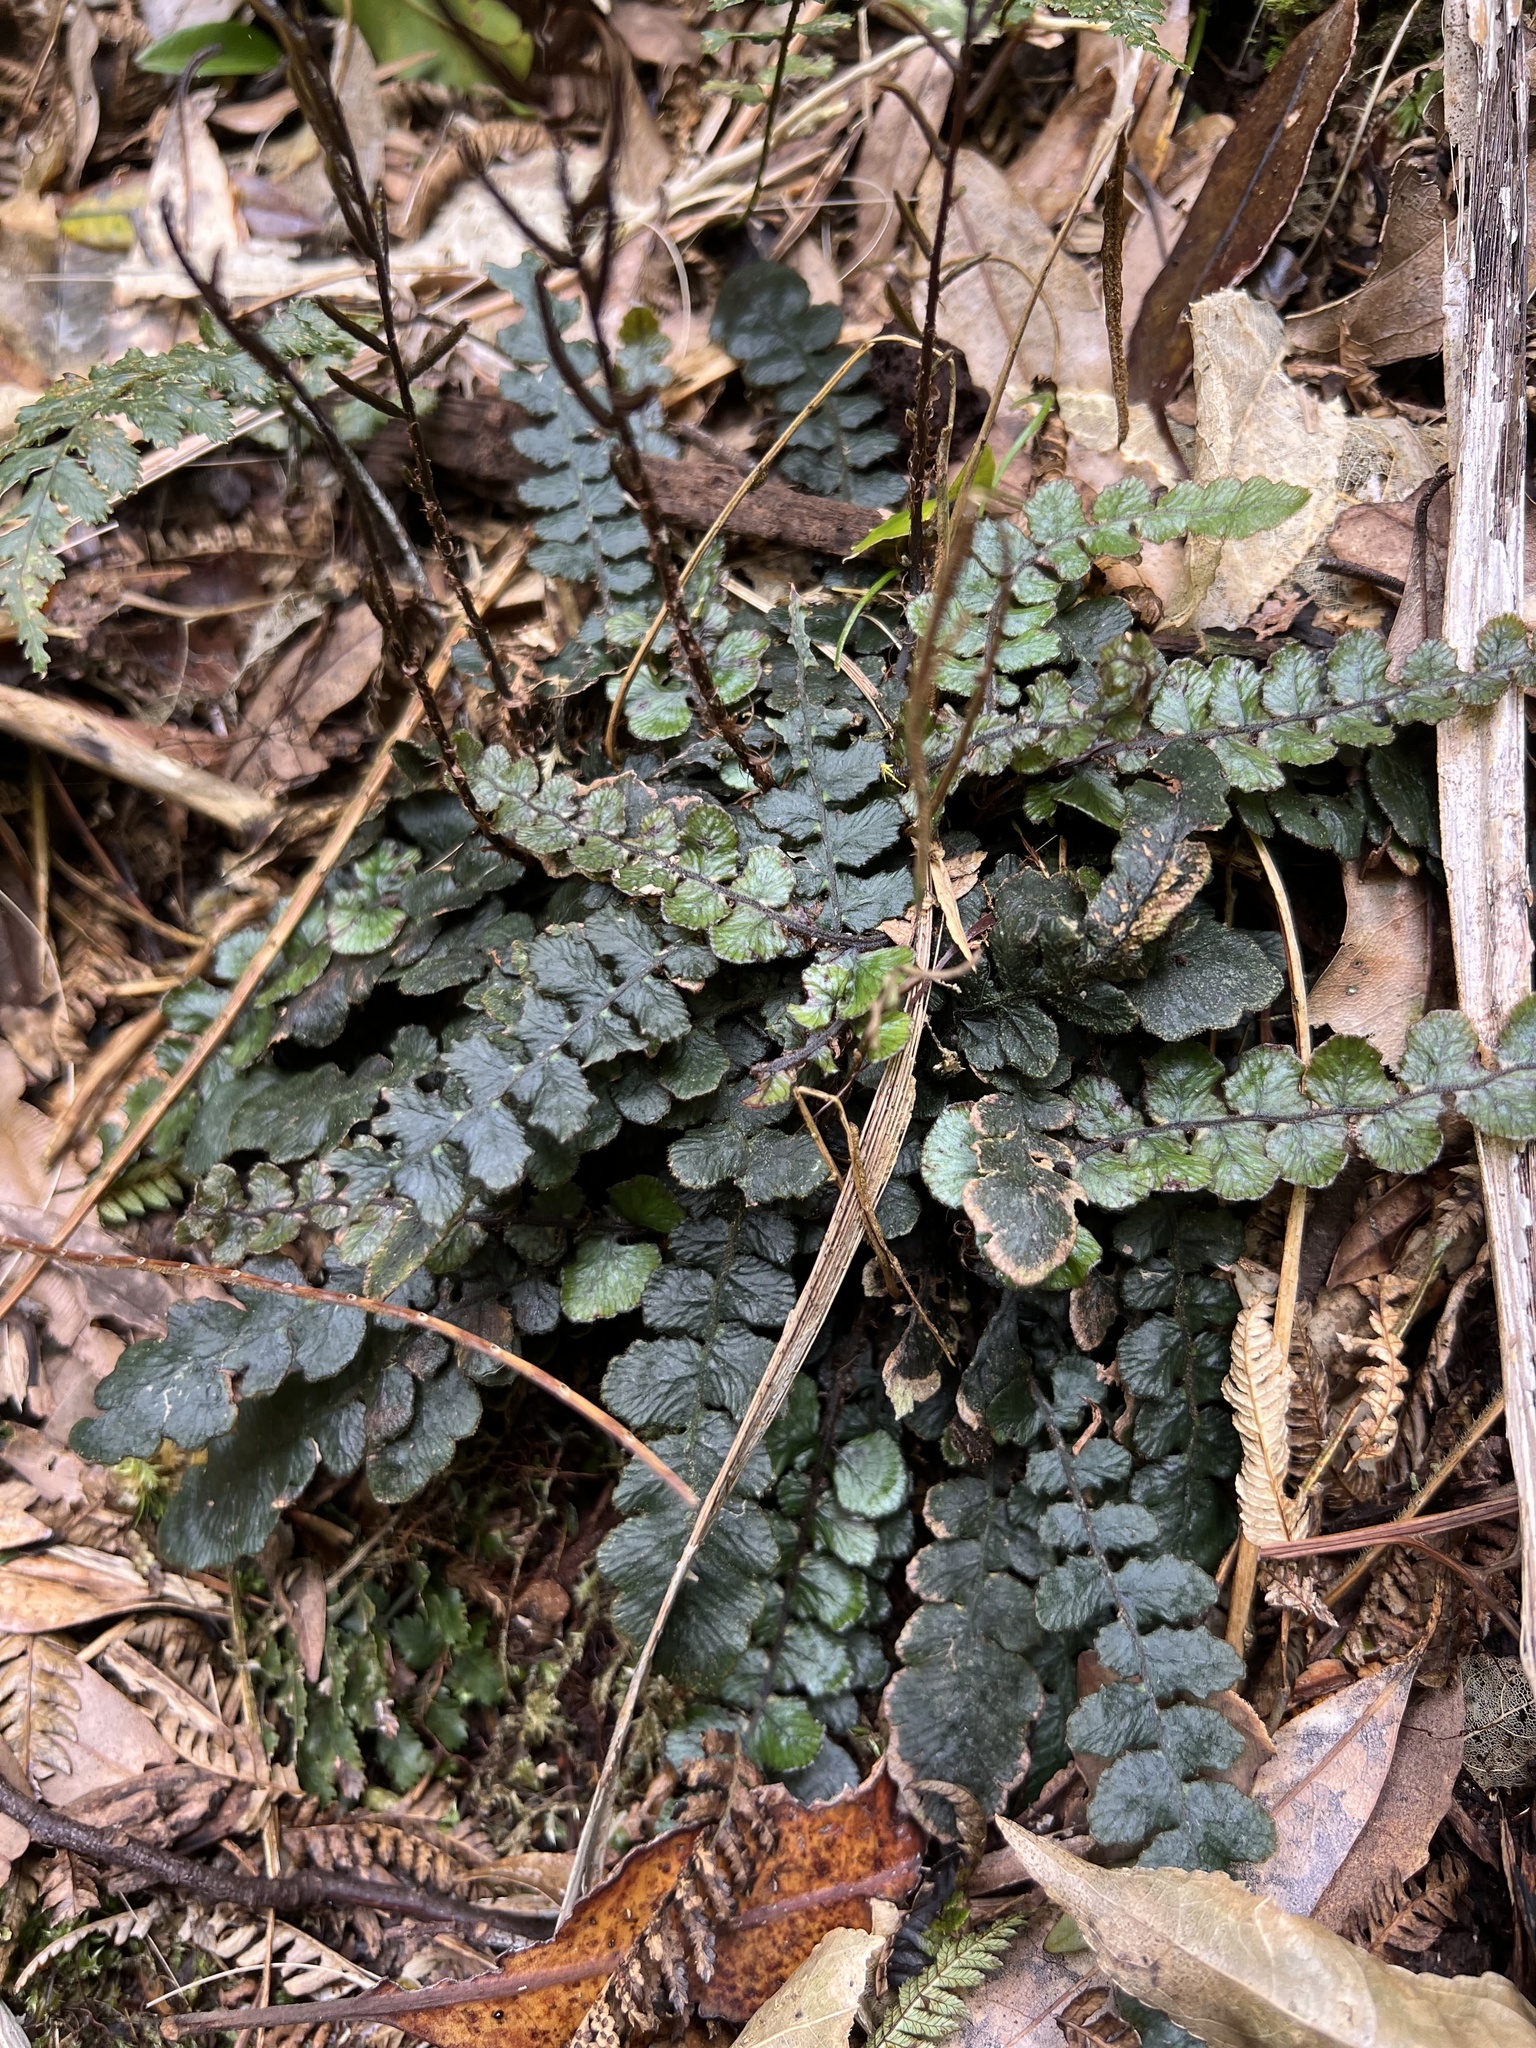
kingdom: Plantae
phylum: Tracheophyta
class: Polypodiopsida
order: Polypodiales
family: Blechnaceae
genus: Cranfillia
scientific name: Cranfillia nigra
